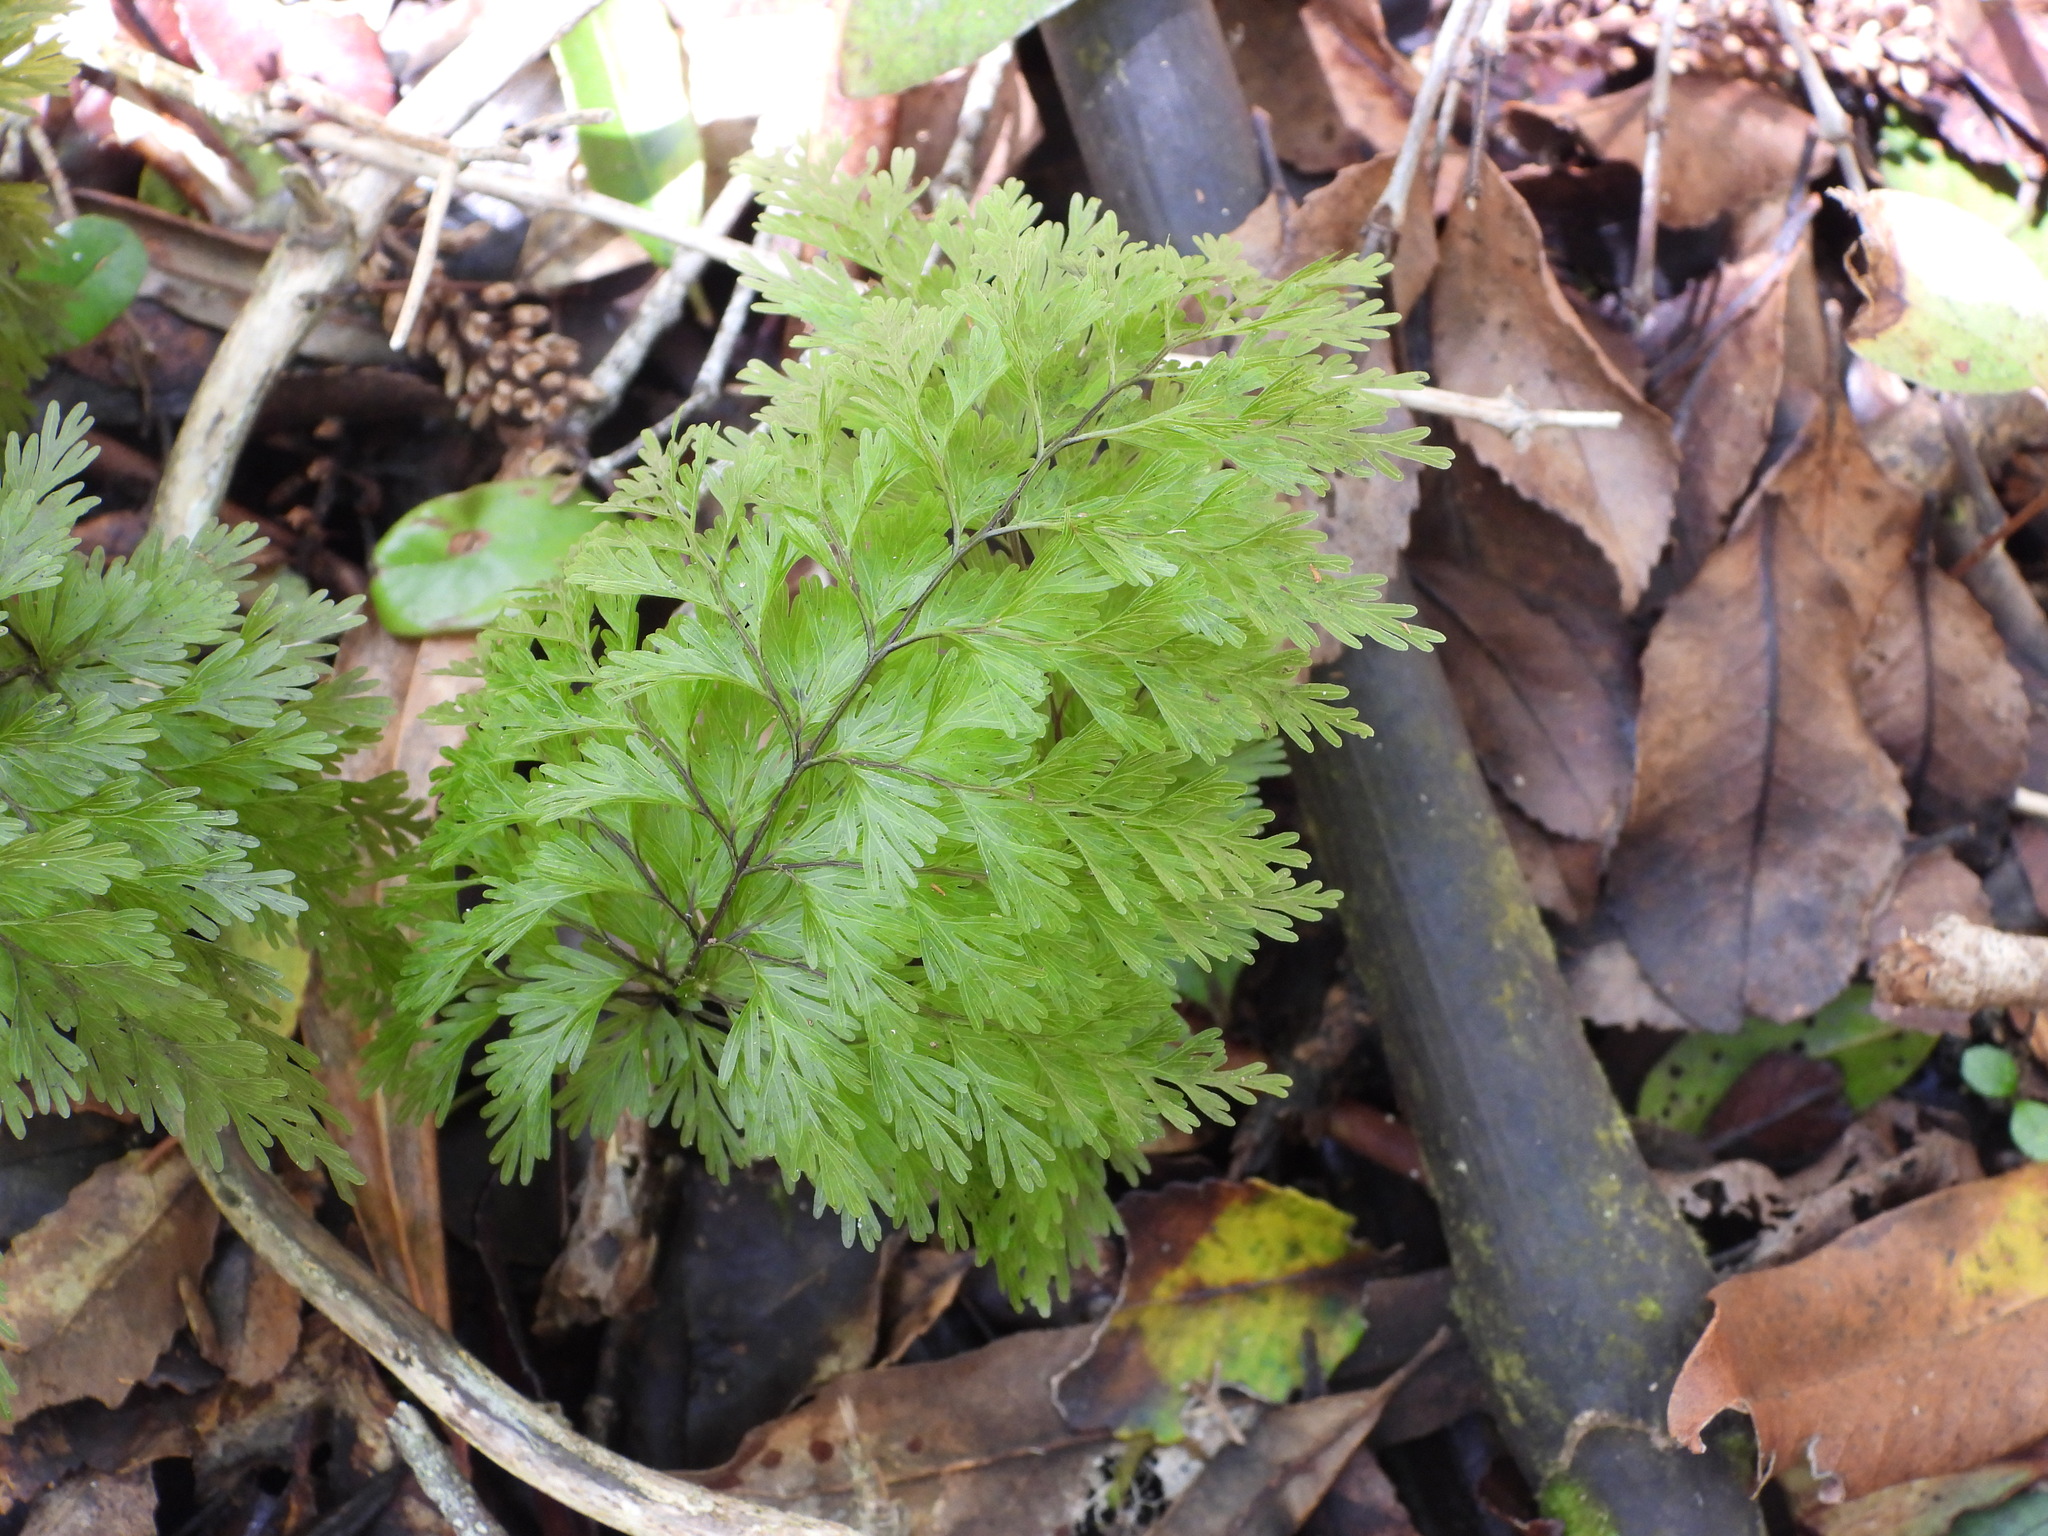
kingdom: Plantae
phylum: Tracheophyta
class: Polypodiopsida
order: Hymenophyllales
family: Hymenophyllaceae
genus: Hymenophyllum
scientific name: Hymenophyllum demissum
